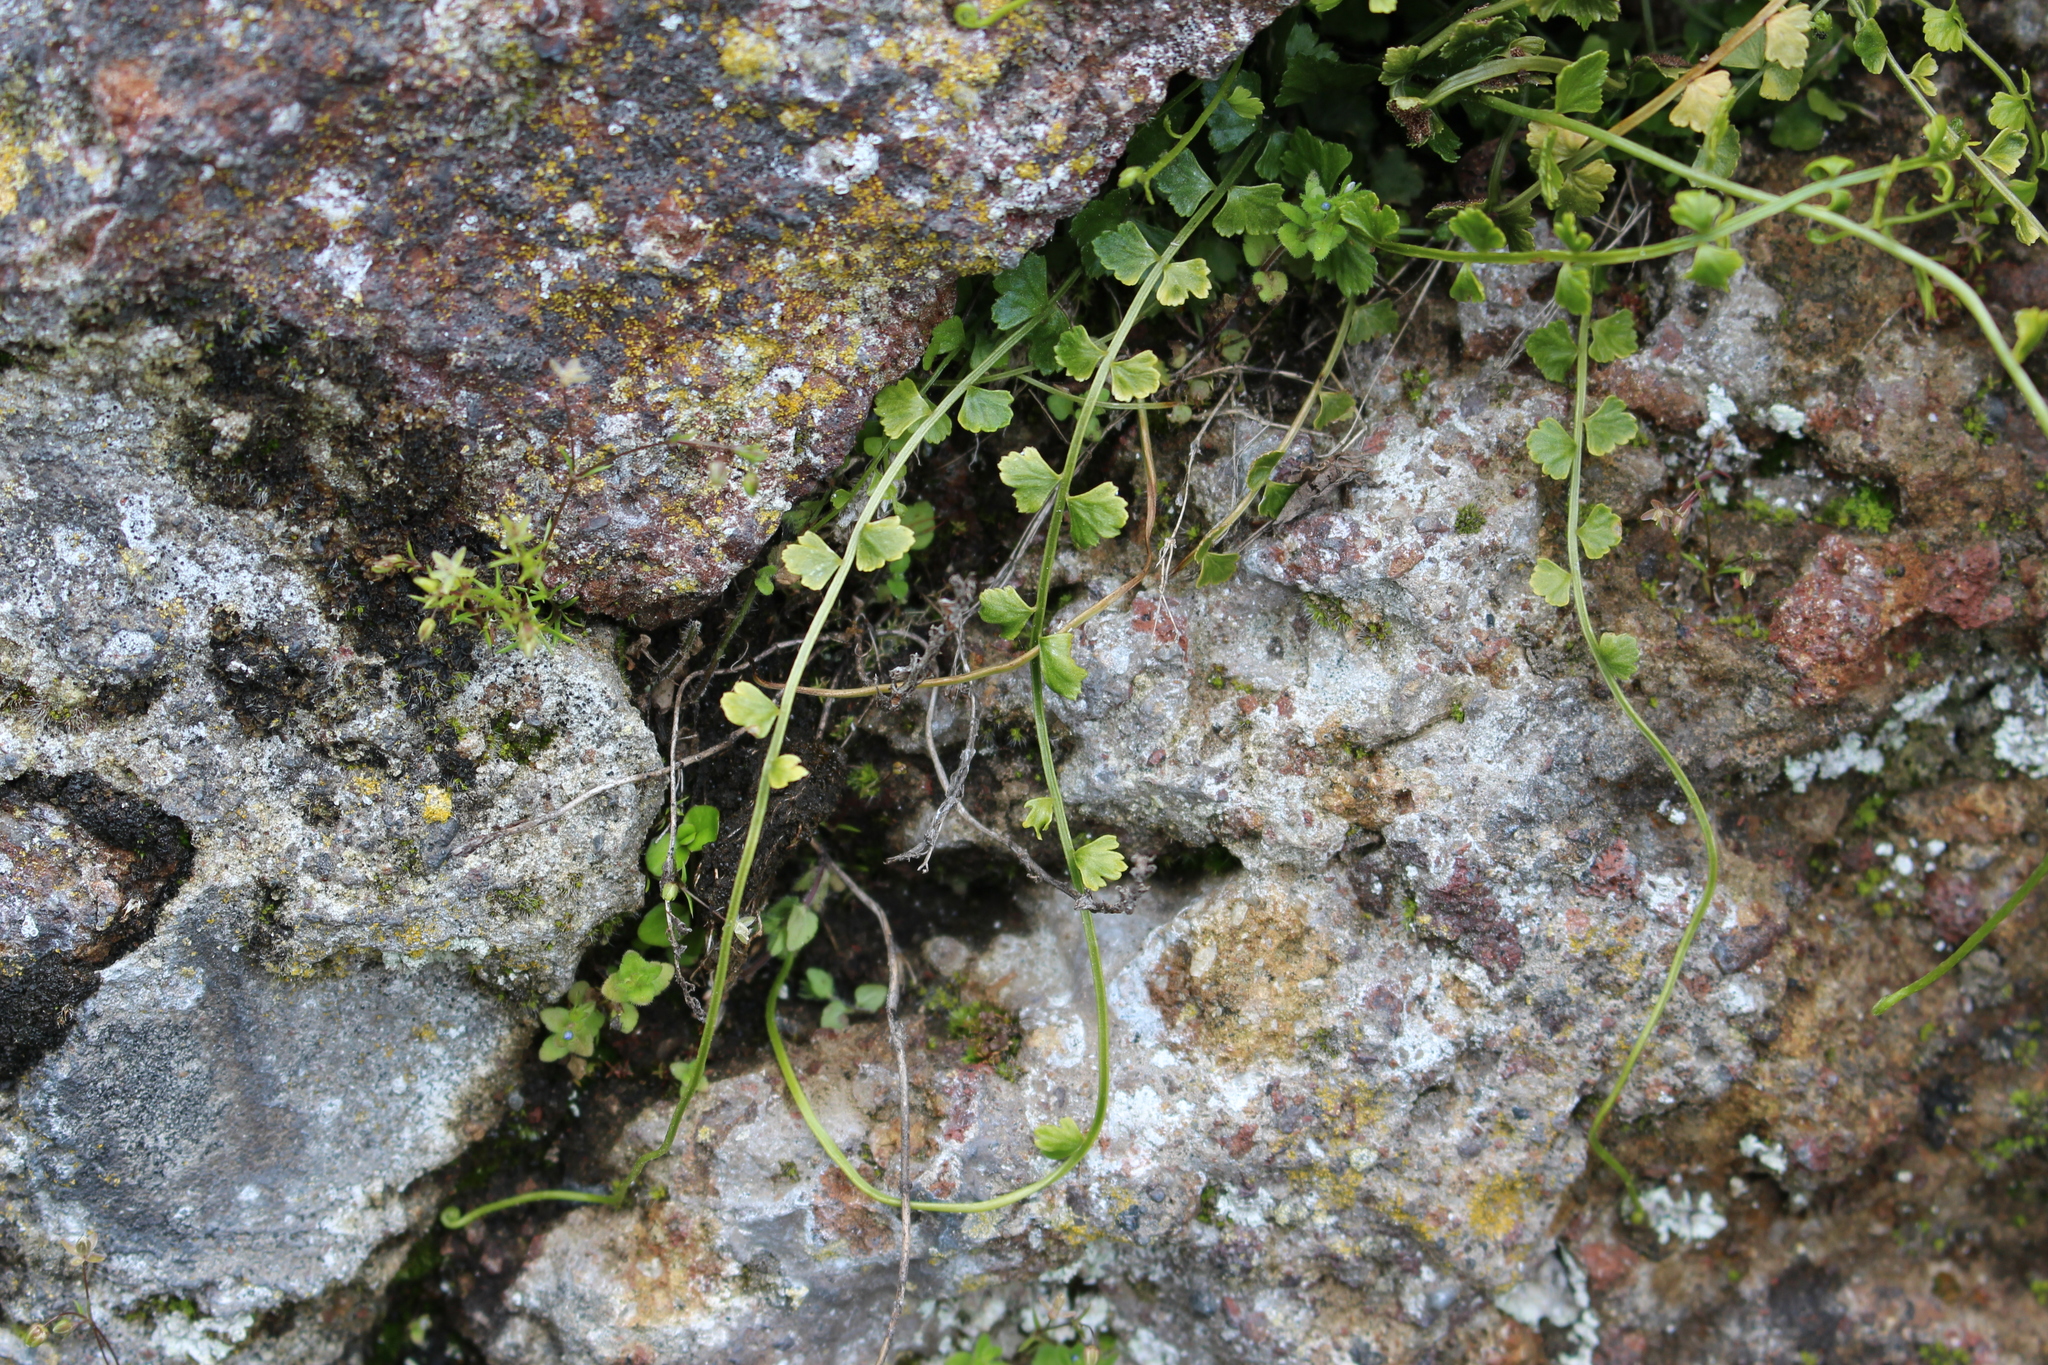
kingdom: Plantae
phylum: Tracheophyta
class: Polypodiopsida
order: Polypodiales
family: Aspleniaceae
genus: Asplenium
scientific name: Asplenium flabellifolium
